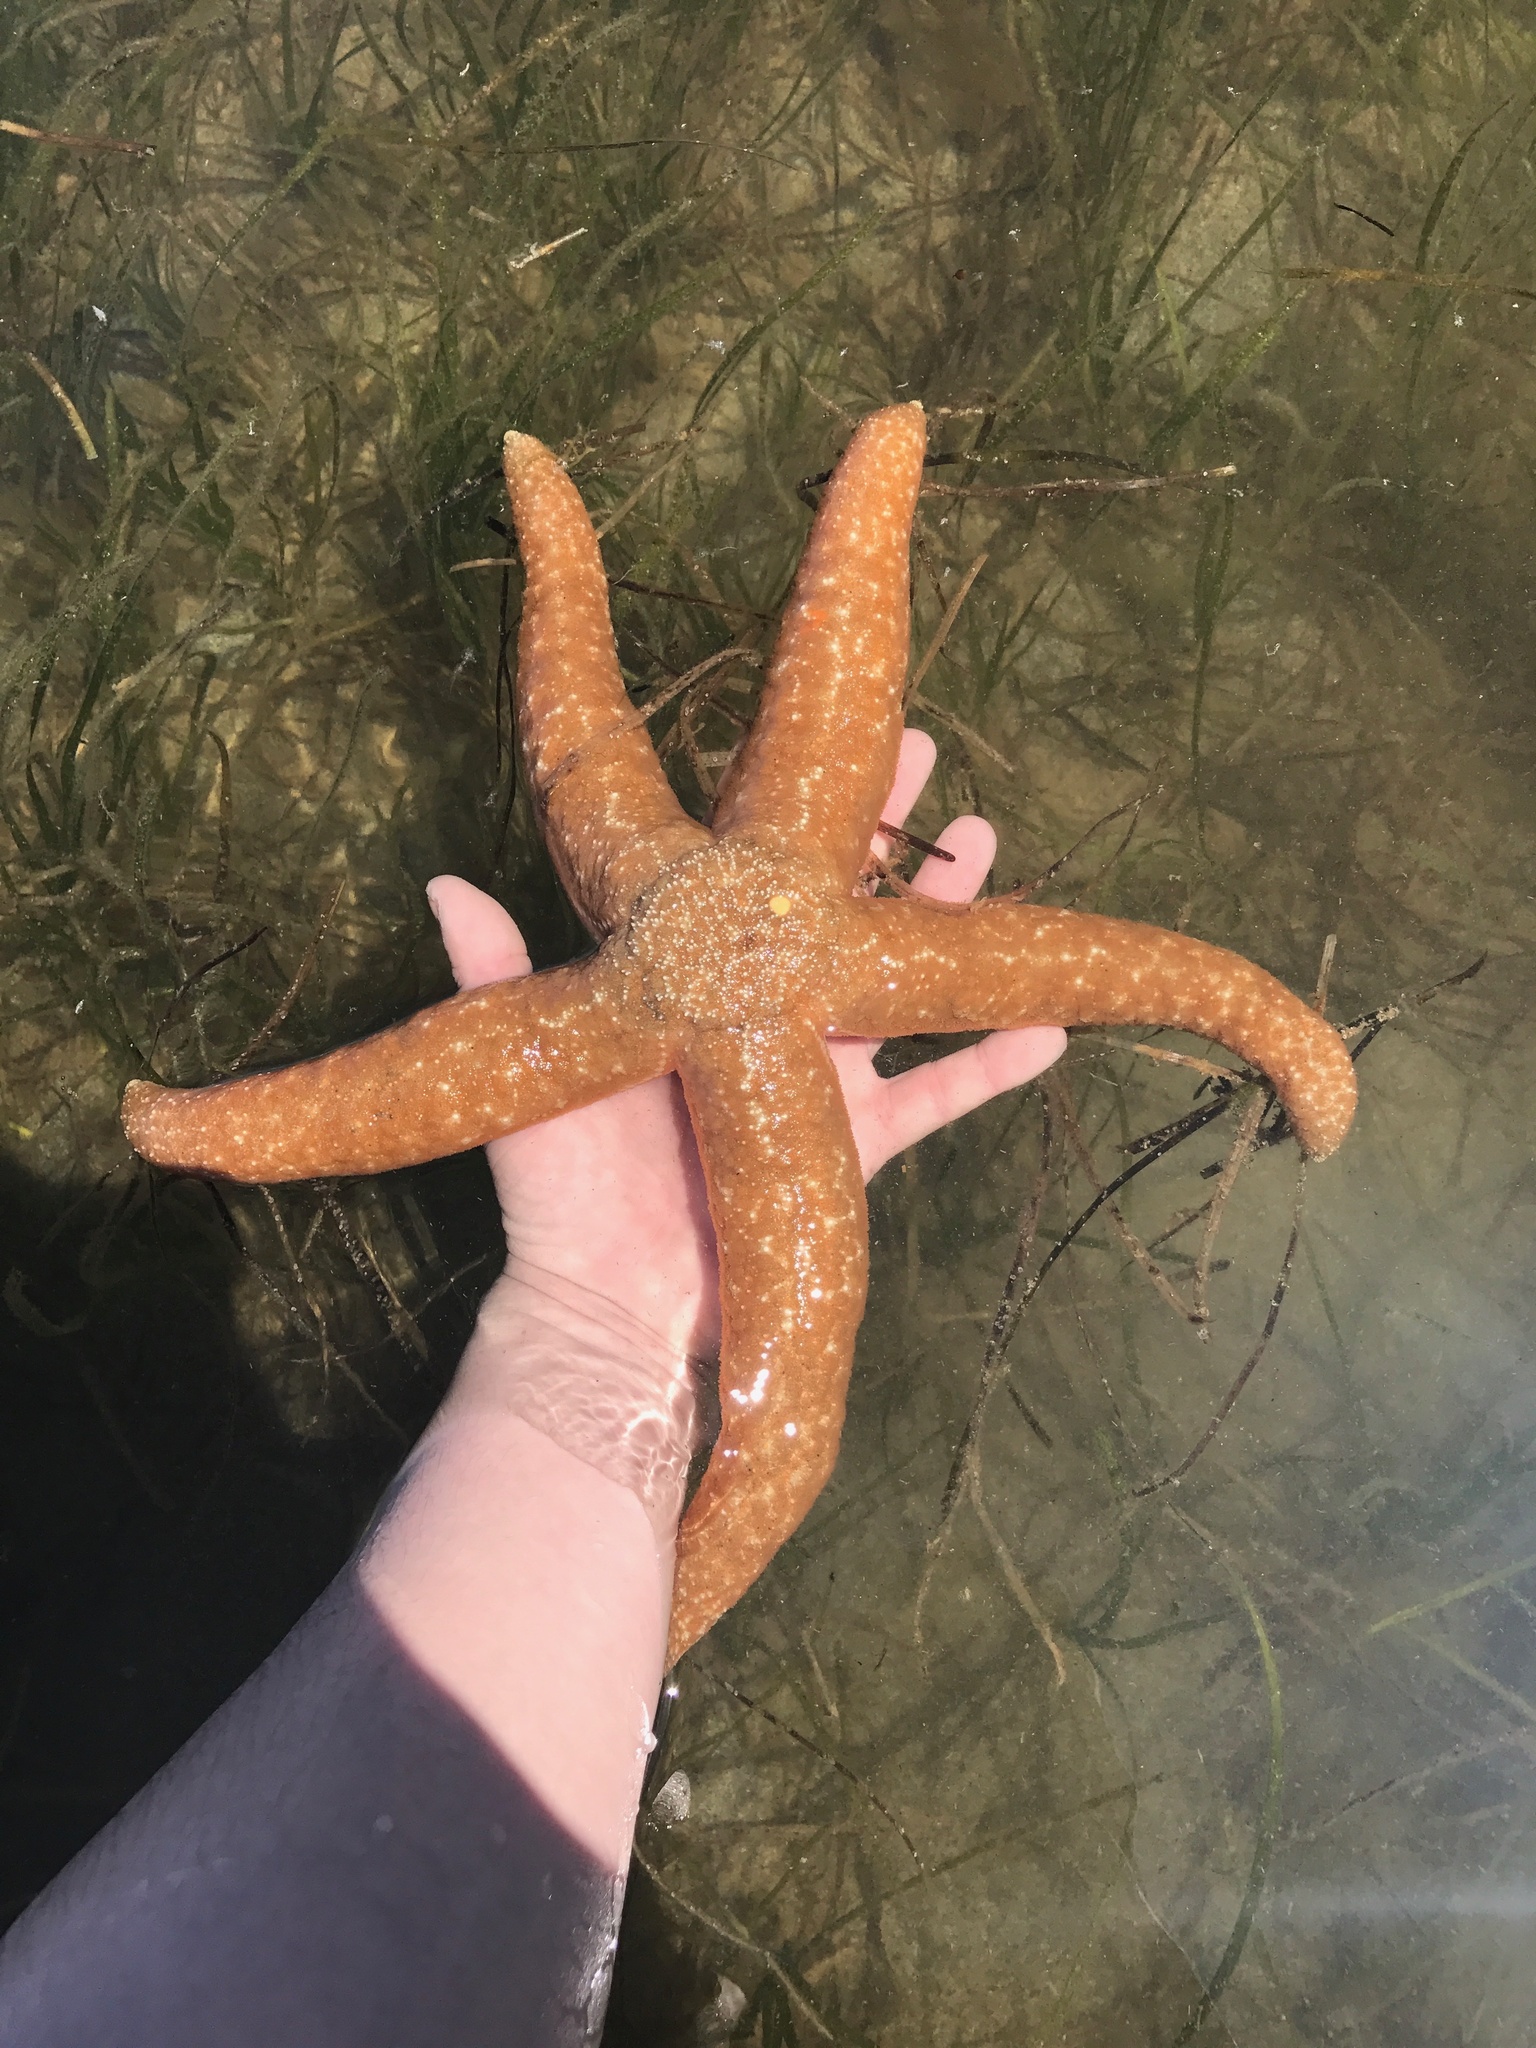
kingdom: Animalia
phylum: Echinodermata
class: Asteroidea
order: Forcipulatida
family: Asteriidae
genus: Evasterias
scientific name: Evasterias troschelii
